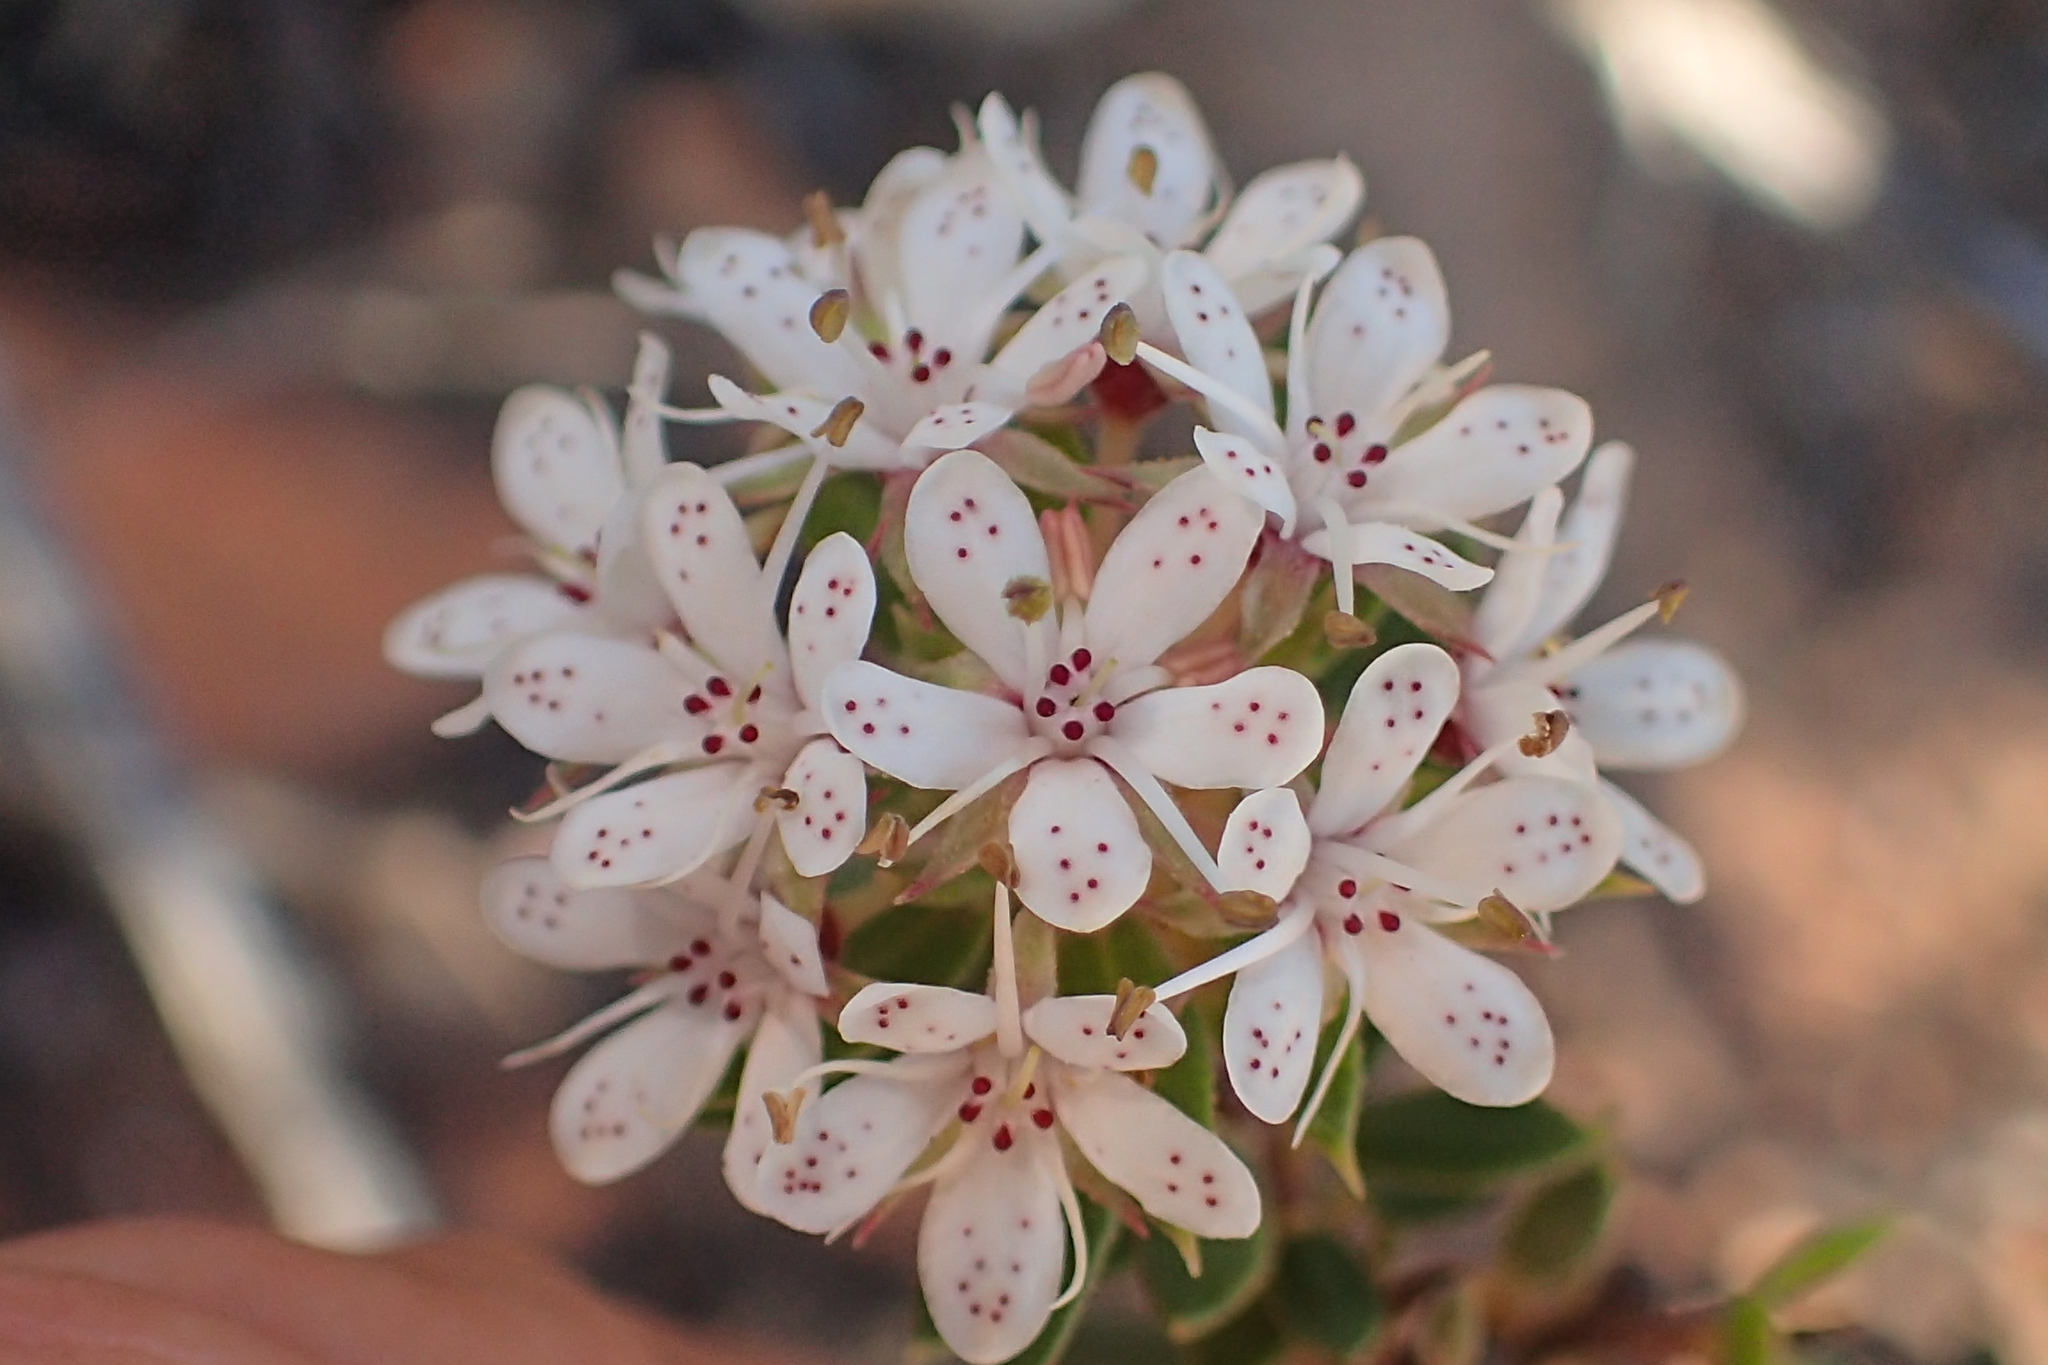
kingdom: Plantae
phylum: Tracheophyta
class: Magnoliopsida
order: Sapindales
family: Rutaceae
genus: Agathosma
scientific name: Agathosma puberula
